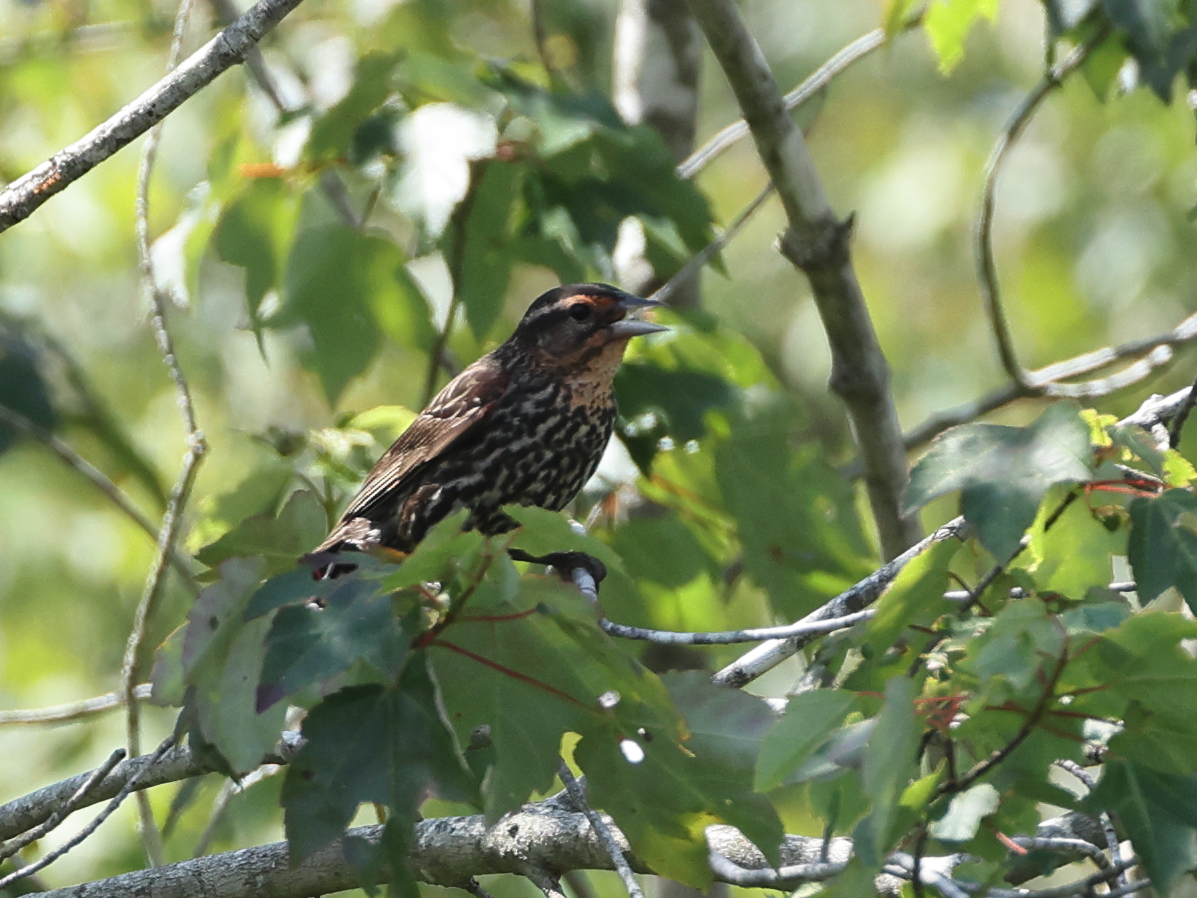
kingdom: Animalia
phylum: Chordata
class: Aves
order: Passeriformes
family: Icteridae
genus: Agelaius
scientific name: Agelaius phoeniceus
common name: Red-winged blackbird
